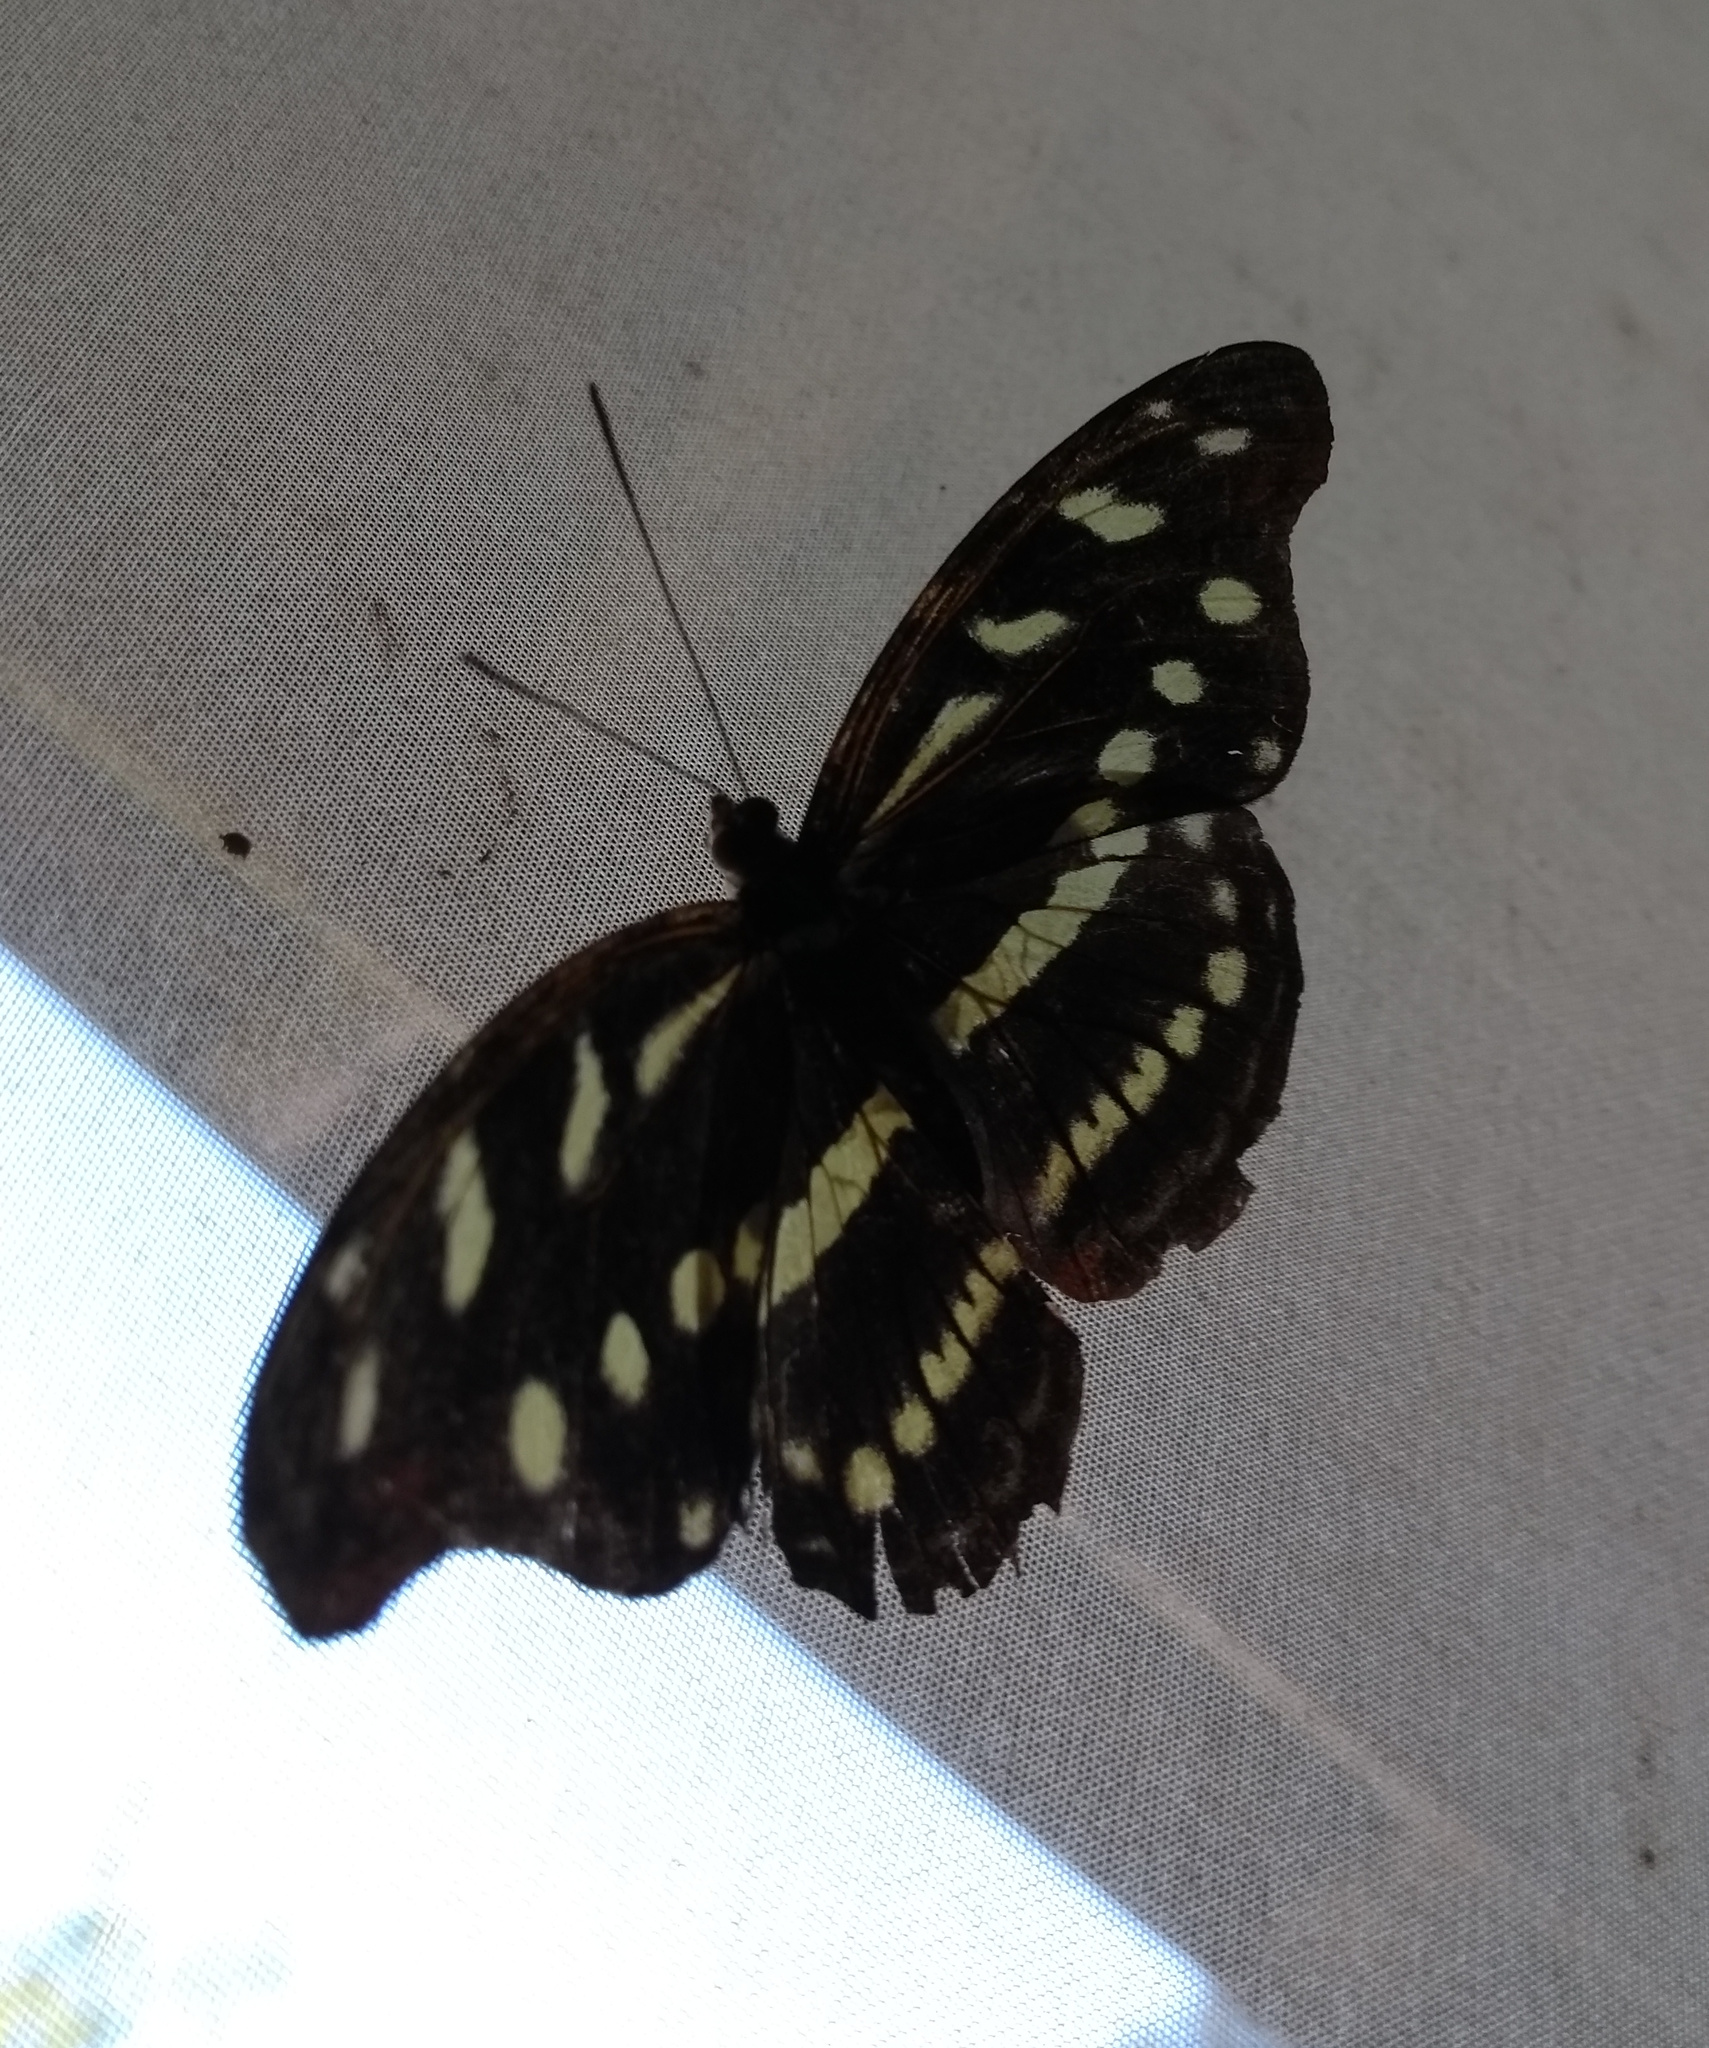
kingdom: Animalia
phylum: Arthropoda
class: Insecta
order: Lepidoptera
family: Nymphalidae
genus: Catonephele
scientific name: Catonephele acontius
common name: Unspotted firewing
